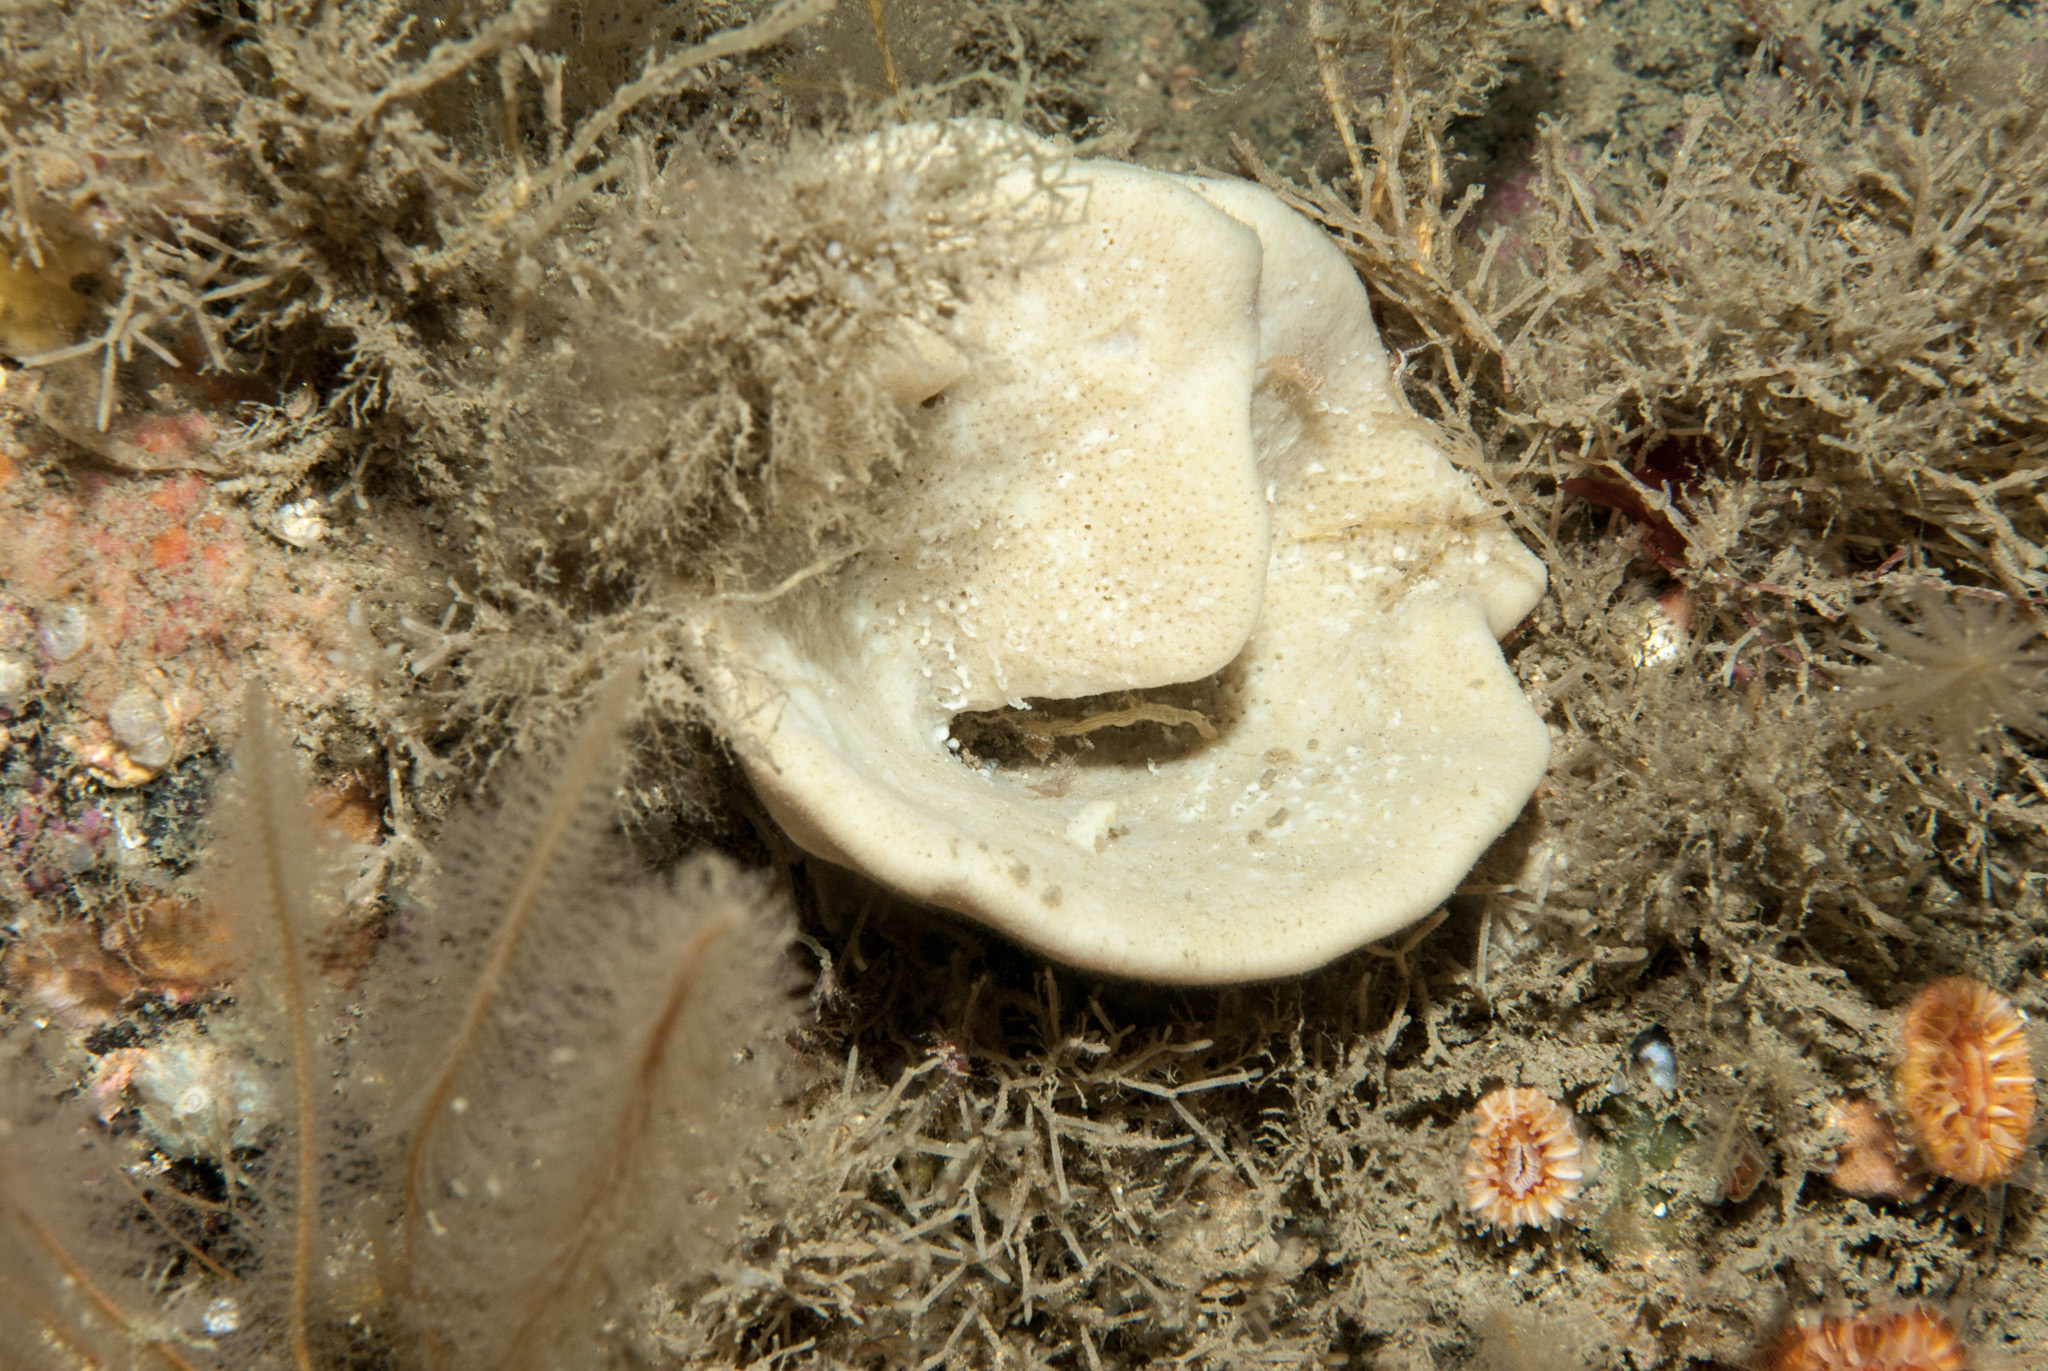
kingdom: Animalia
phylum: Porifera
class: Demospongiae
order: Axinellida
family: Axinellidae
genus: Axinella
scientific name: Axinella infundibuliformis
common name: North atlantic cup sponge
